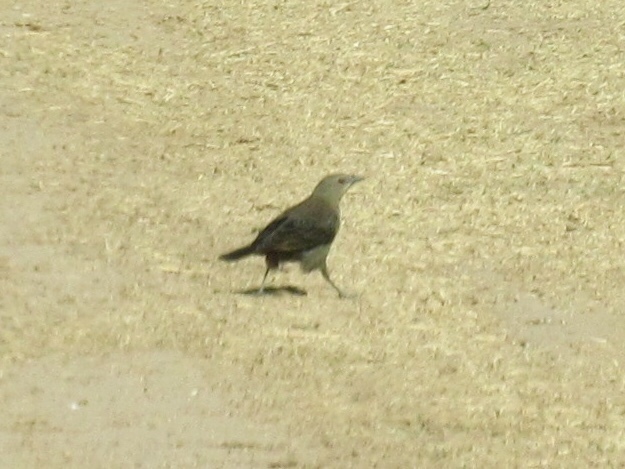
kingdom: Animalia
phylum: Chordata
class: Aves
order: Passeriformes
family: Icteridae
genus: Euphagus
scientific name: Euphagus cyanocephalus
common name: Brewer's blackbird
